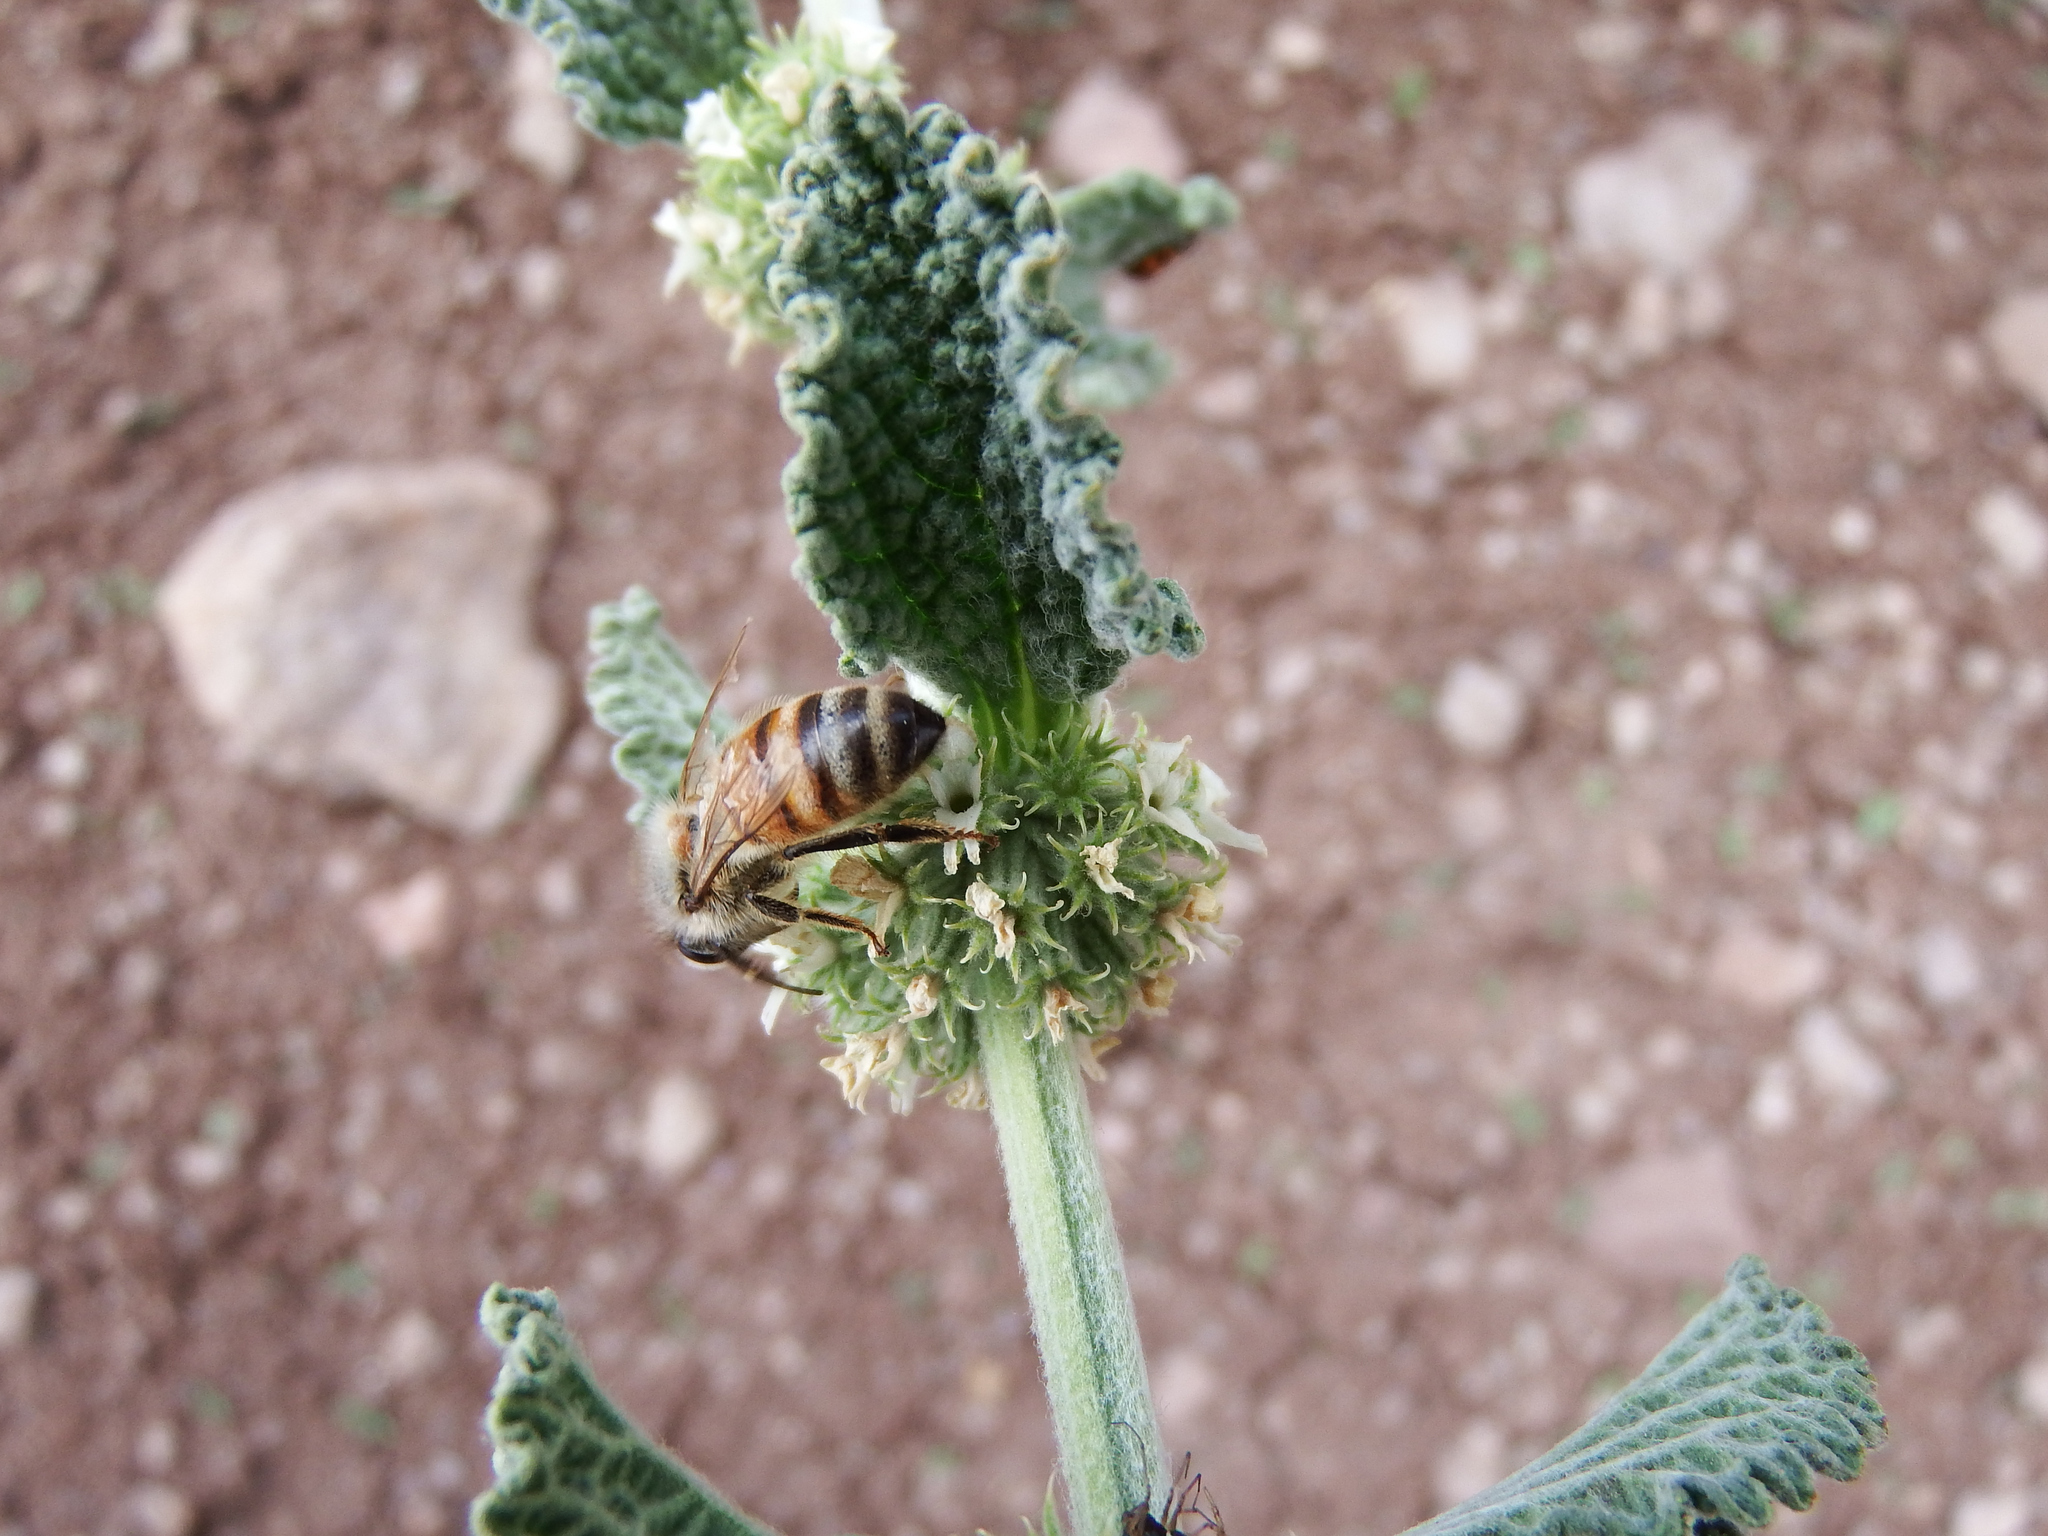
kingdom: Animalia
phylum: Arthropoda
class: Insecta
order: Hymenoptera
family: Apidae
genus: Apis
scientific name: Apis mellifera
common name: Honey bee
